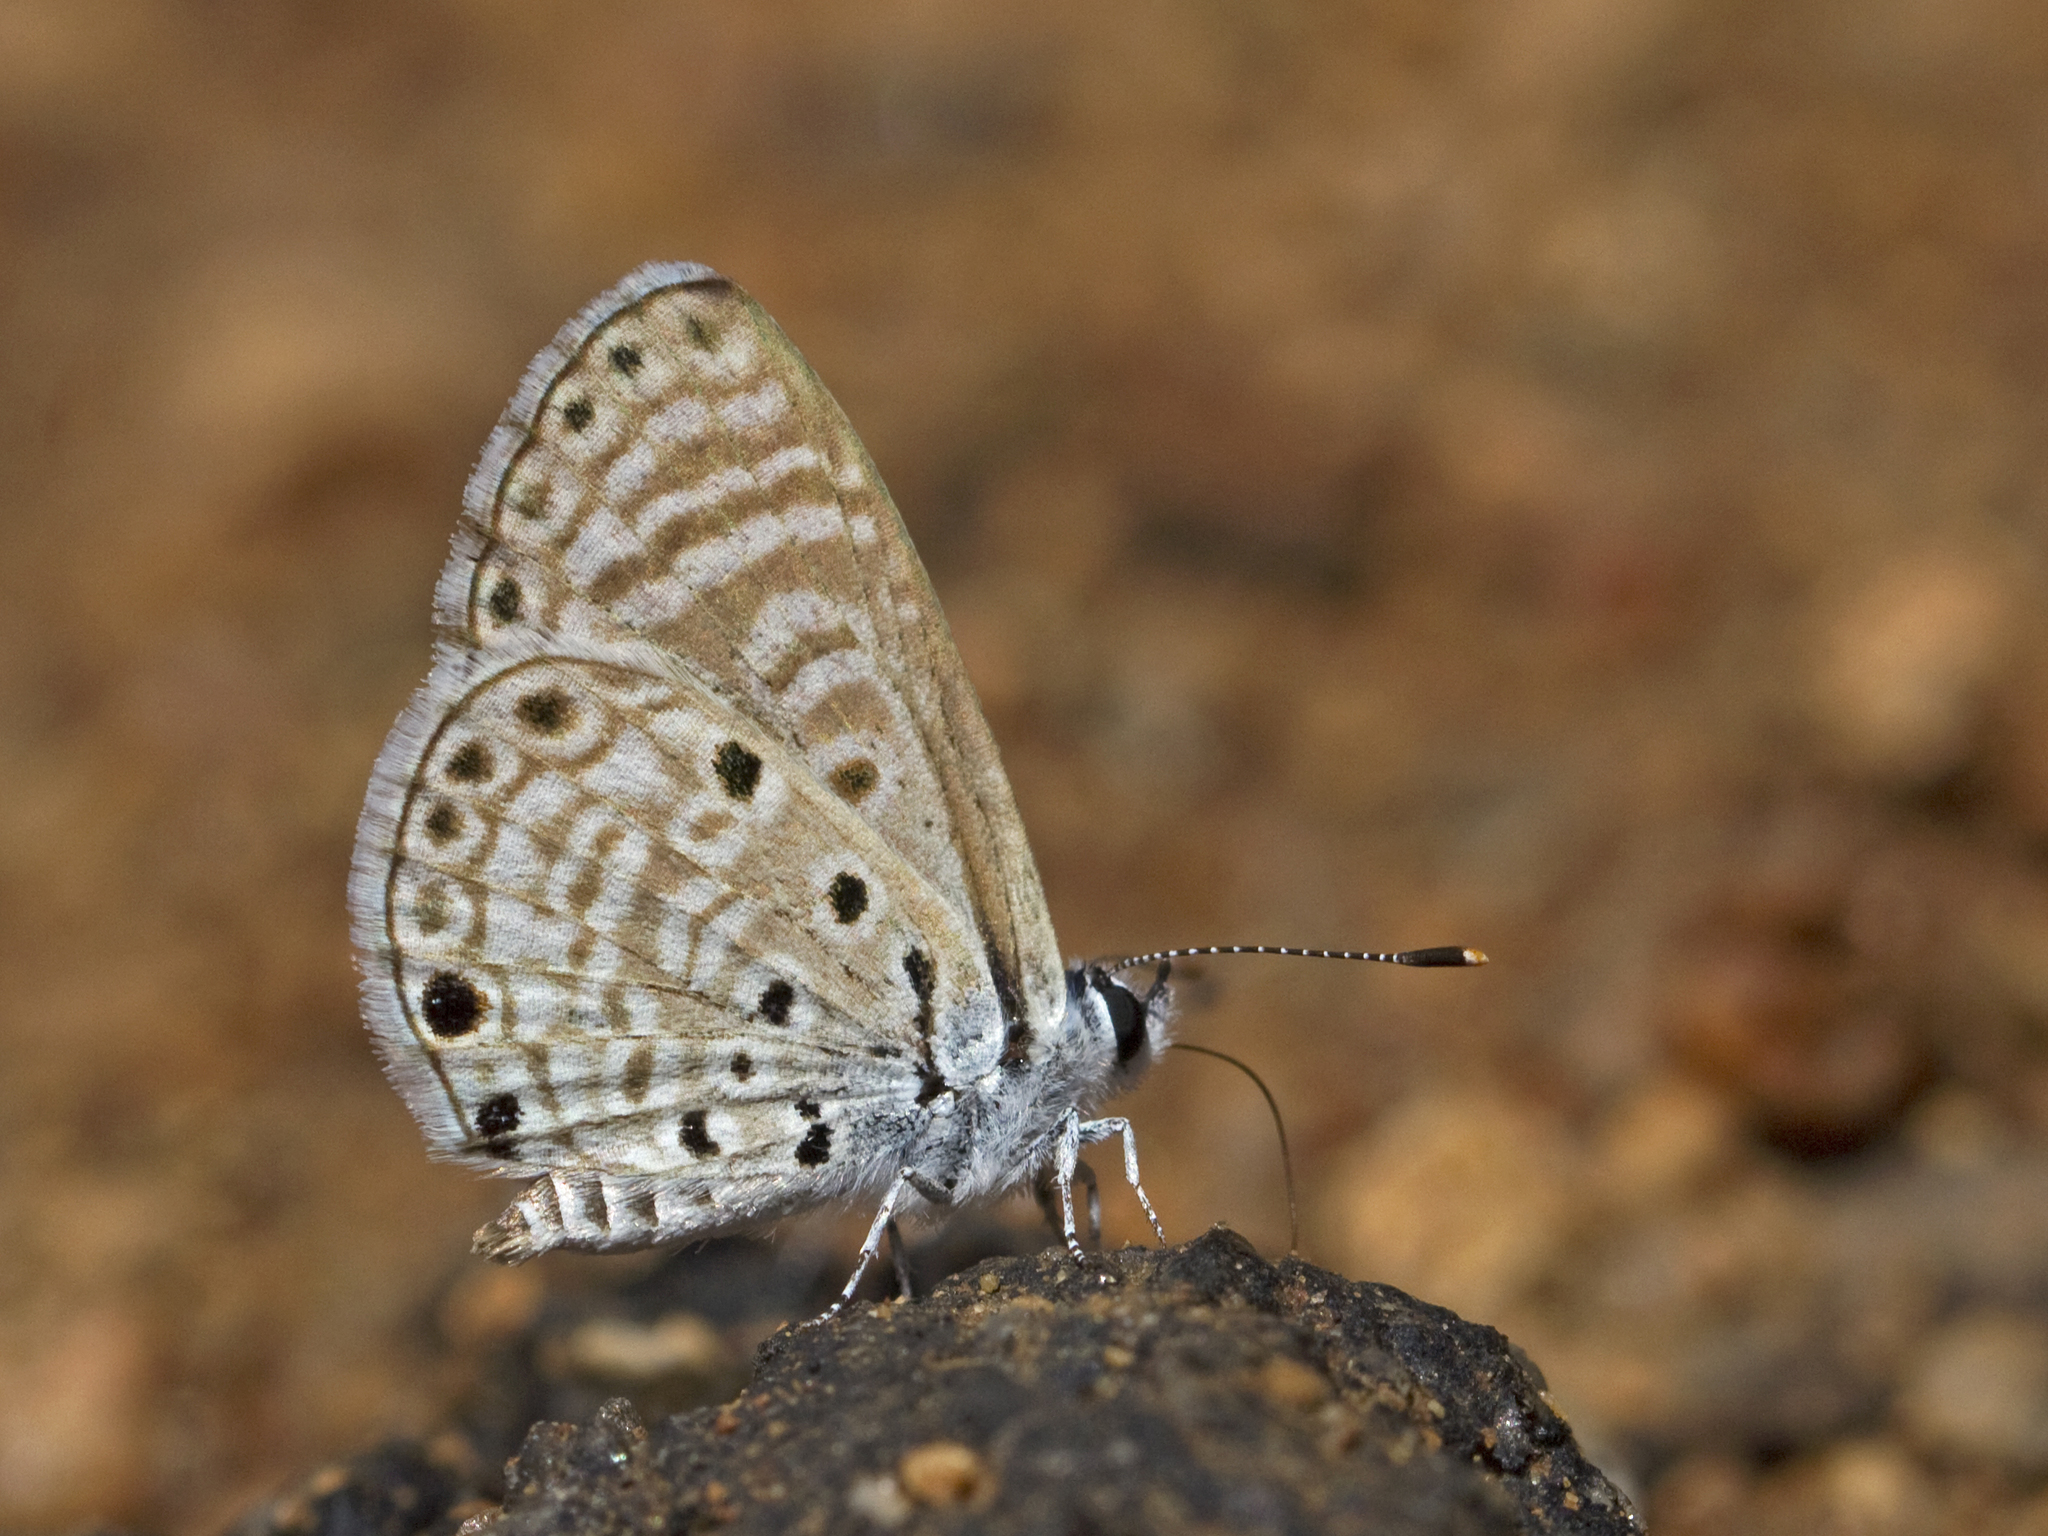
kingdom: Animalia
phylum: Arthropoda
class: Insecta
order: Lepidoptera
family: Lycaenidae
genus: Azanus
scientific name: Azanus jesous
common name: African babul blue
